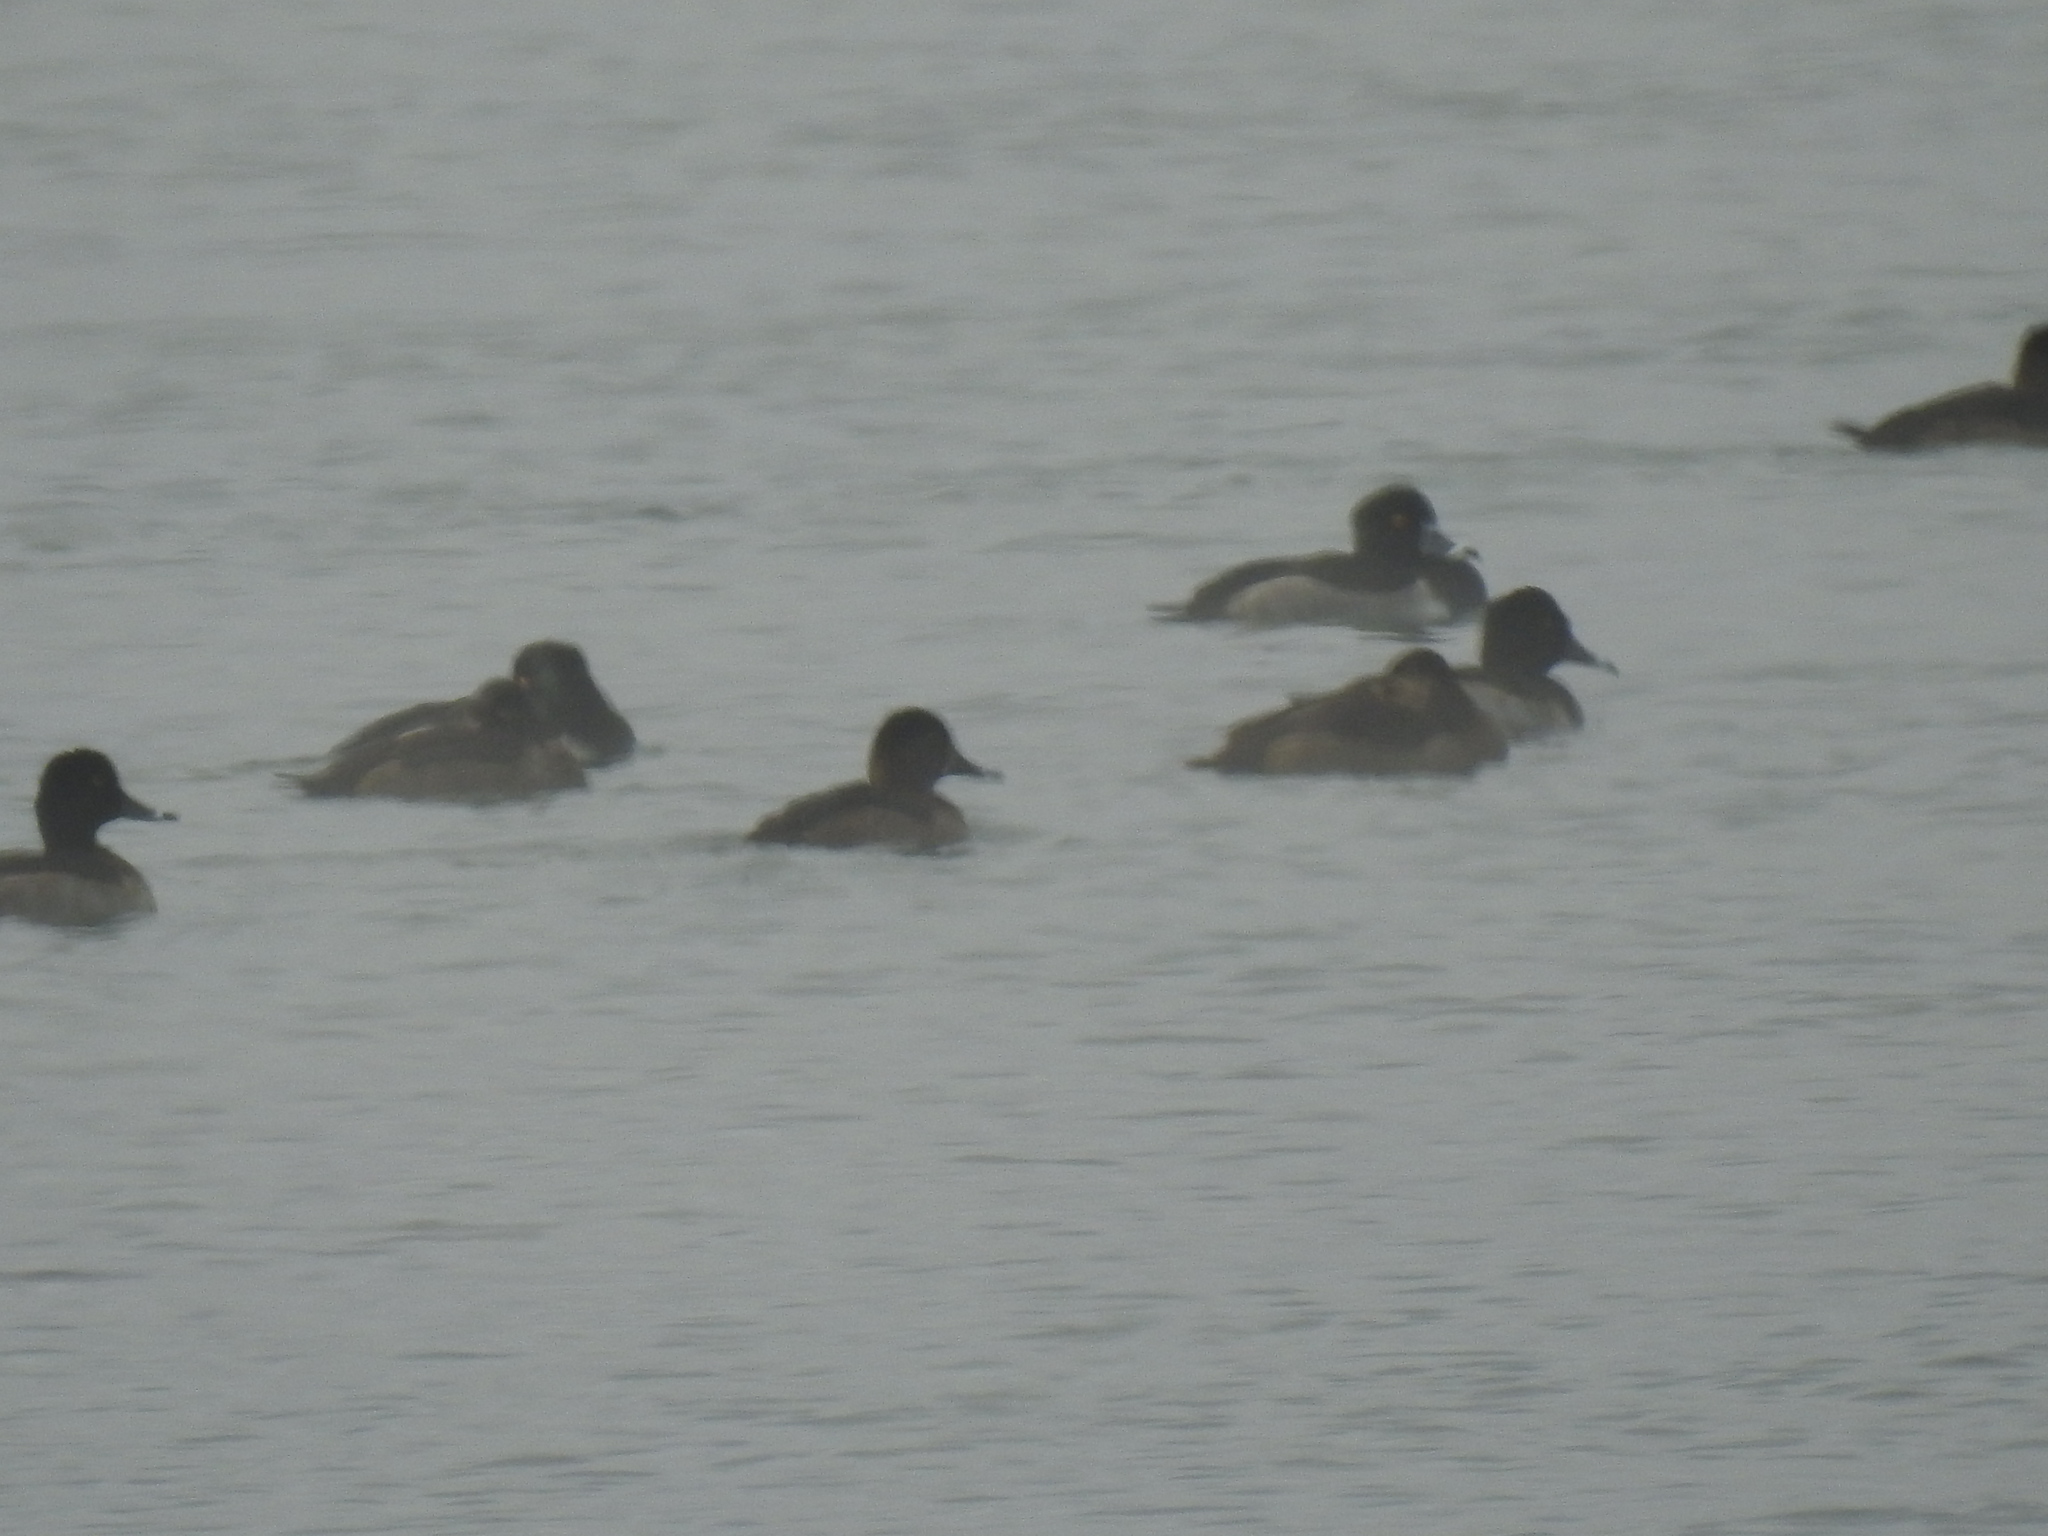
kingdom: Animalia
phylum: Chordata
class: Aves
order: Anseriformes
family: Anatidae
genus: Aythya
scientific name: Aythya collaris
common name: Ring-necked duck
